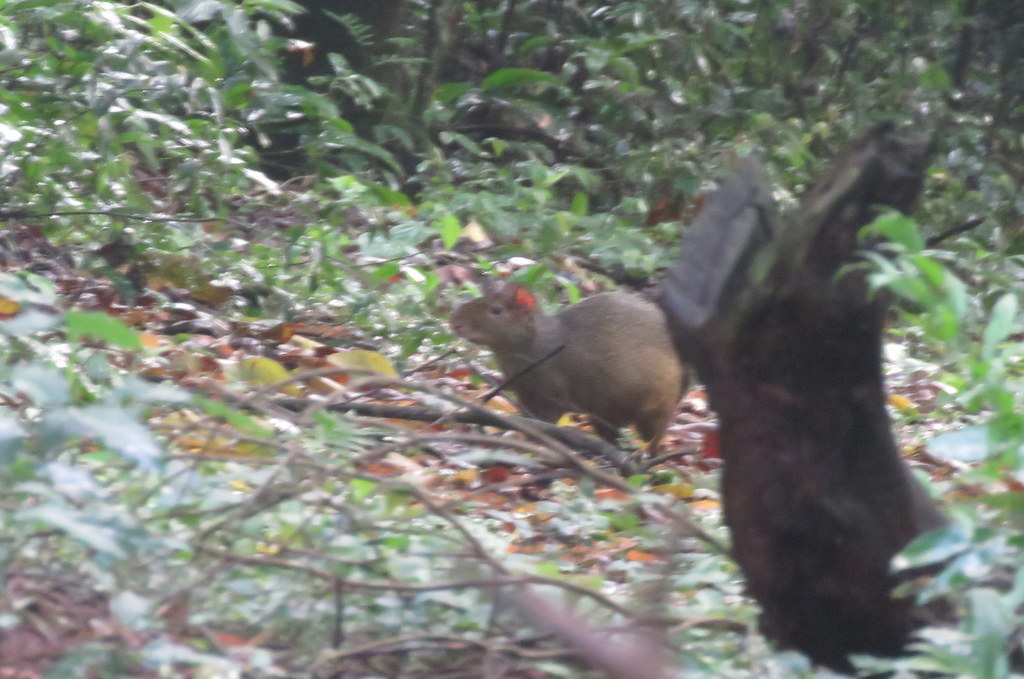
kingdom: Animalia
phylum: Chordata
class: Mammalia
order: Rodentia
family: Dasyproctidae
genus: Dasyprocta
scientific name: Dasyprocta azarae
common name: Azara's agouti
